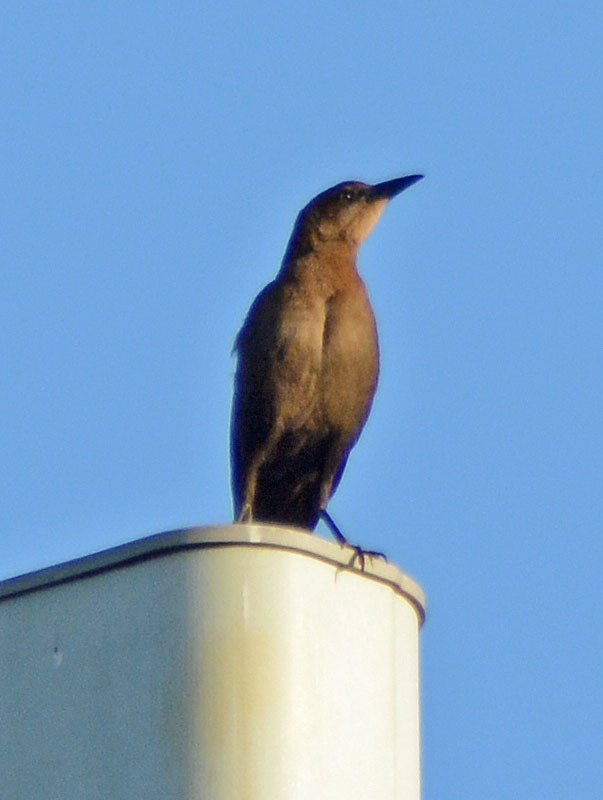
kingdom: Animalia
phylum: Chordata
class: Aves
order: Passeriformes
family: Icteridae
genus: Quiscalus
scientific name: Quiscalus mexicanus
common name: Great-tailed grackle
